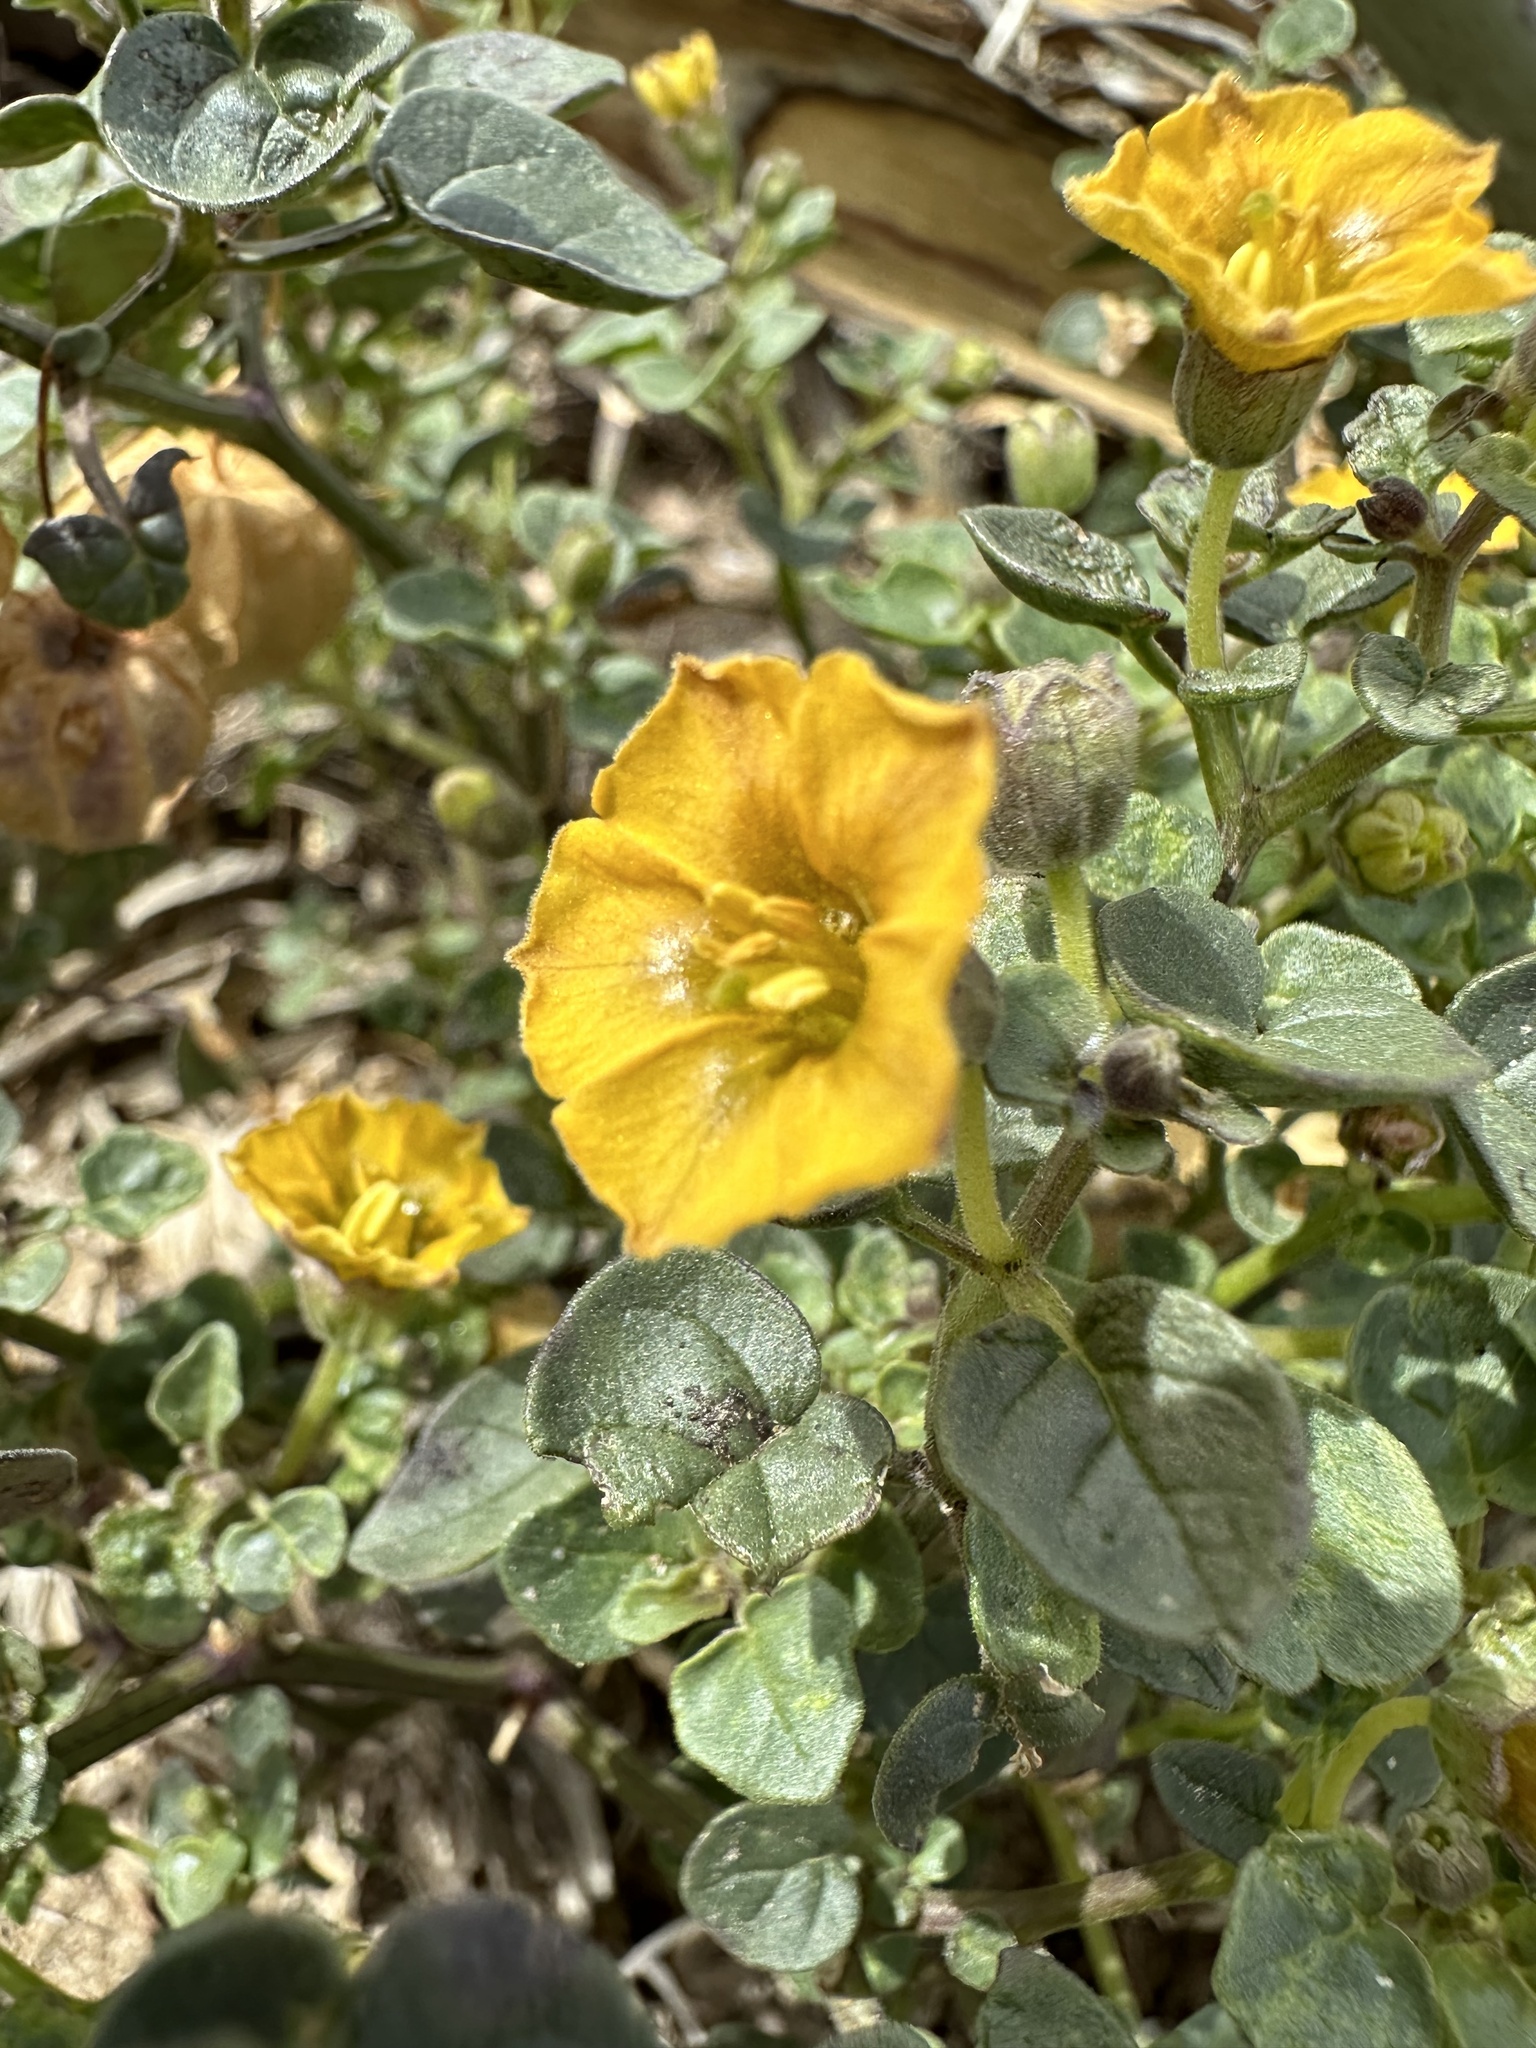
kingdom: Plantae
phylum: Tracheophyta
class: Magnoliopsida
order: Solanales
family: Solanaceae
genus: Physalis
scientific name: Physalis crassifolia
